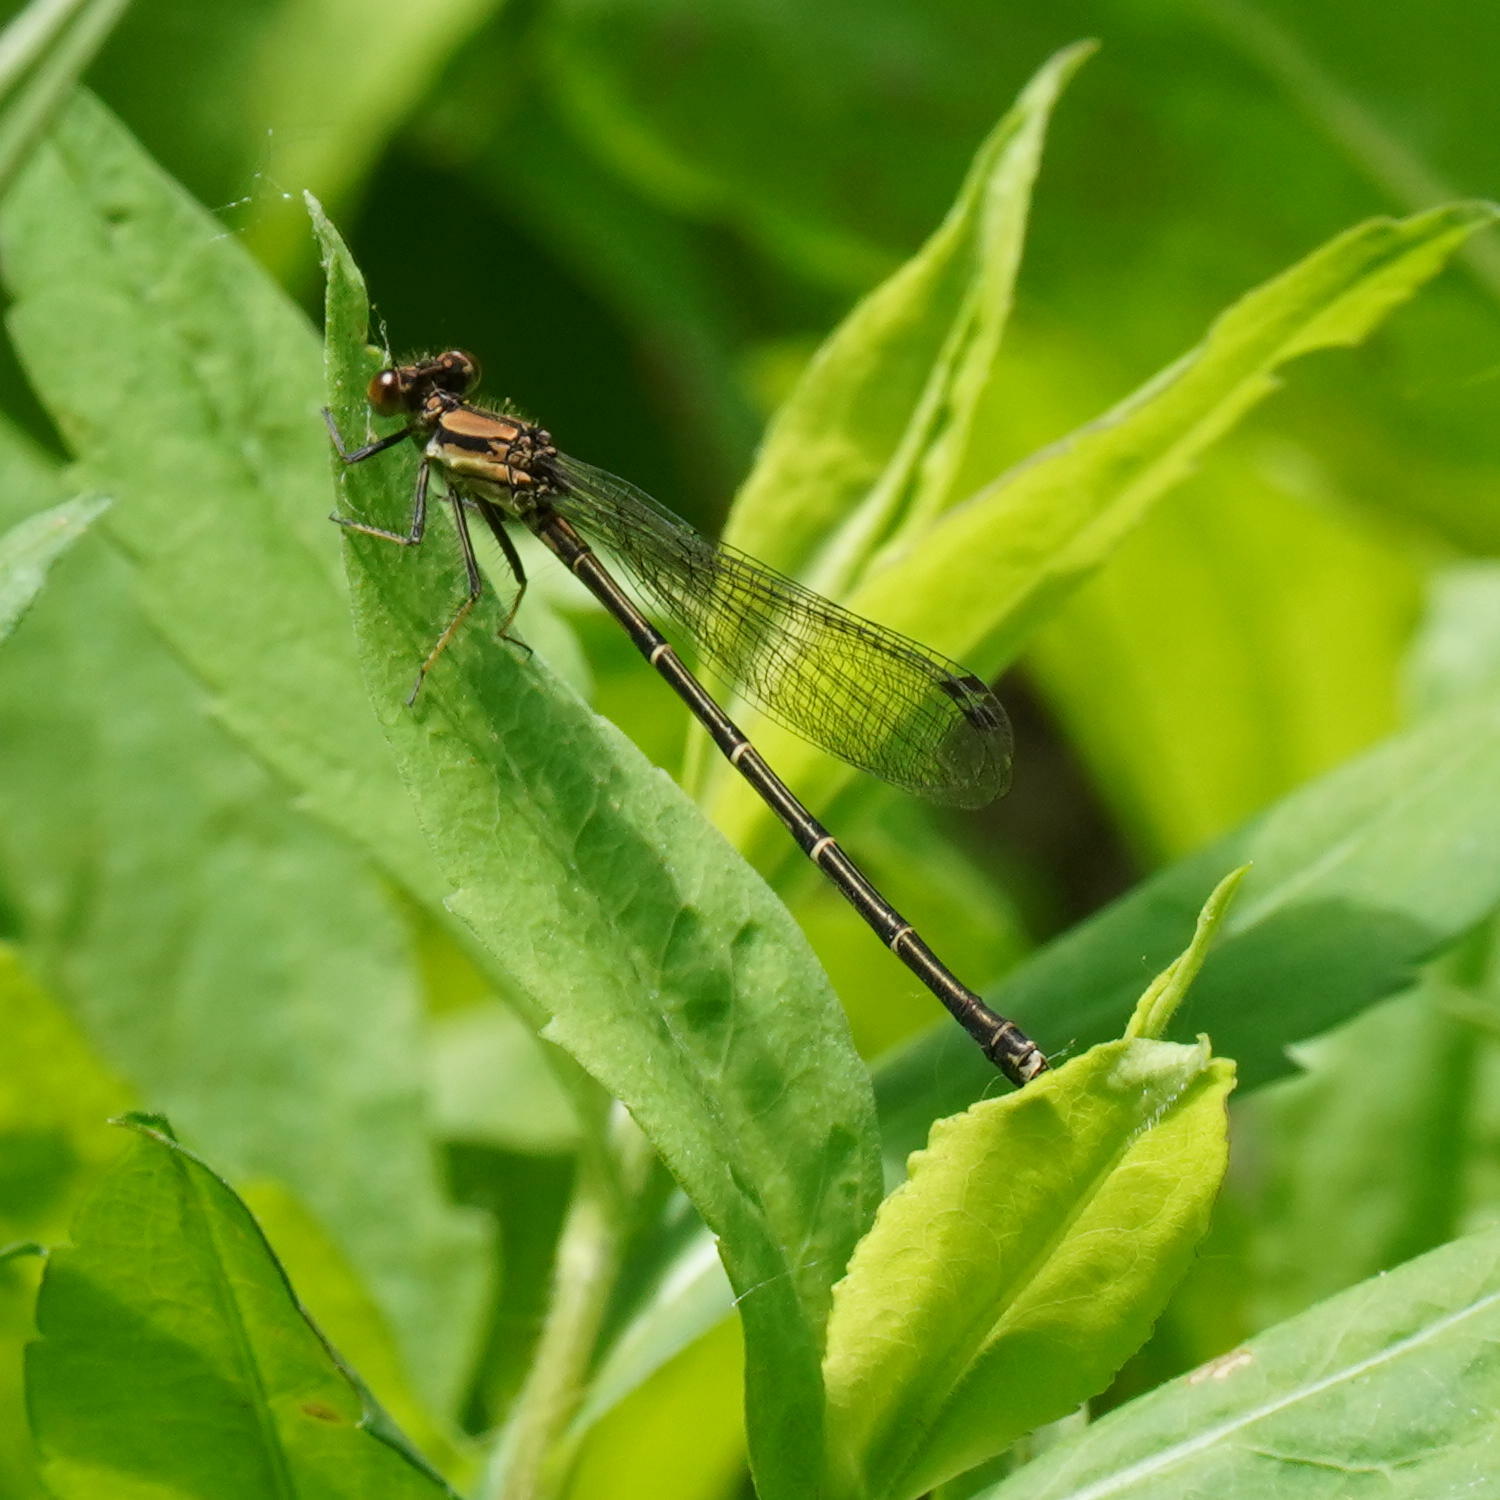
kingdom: Animalia
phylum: Arthropoda
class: Insecta
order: Odonata
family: Coenagrionidae
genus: Argia
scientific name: Argia tibialis
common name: Blue-tipped dancer
